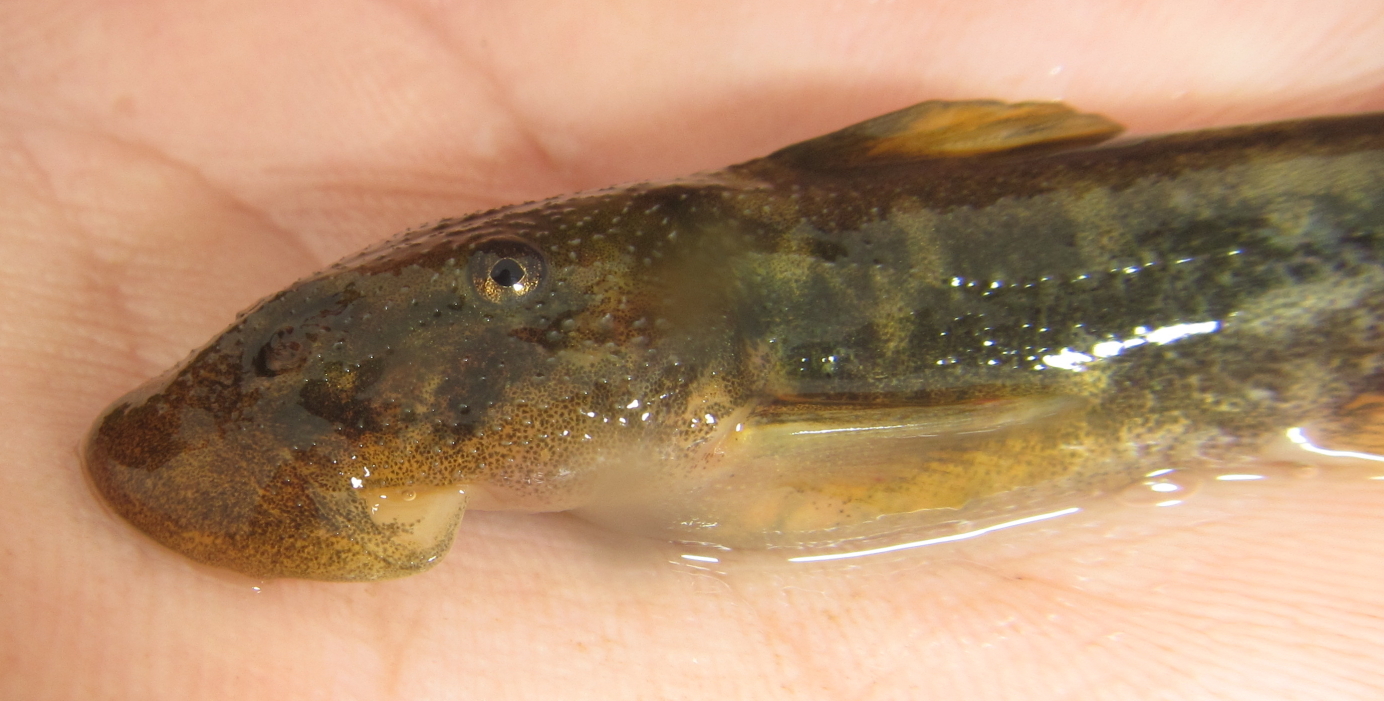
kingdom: Animalia
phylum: Chordata
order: Siluriformes
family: Mochokidae
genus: Chiloglanis
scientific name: Chiloglanis anoterus
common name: Pennant-tailed catlet
